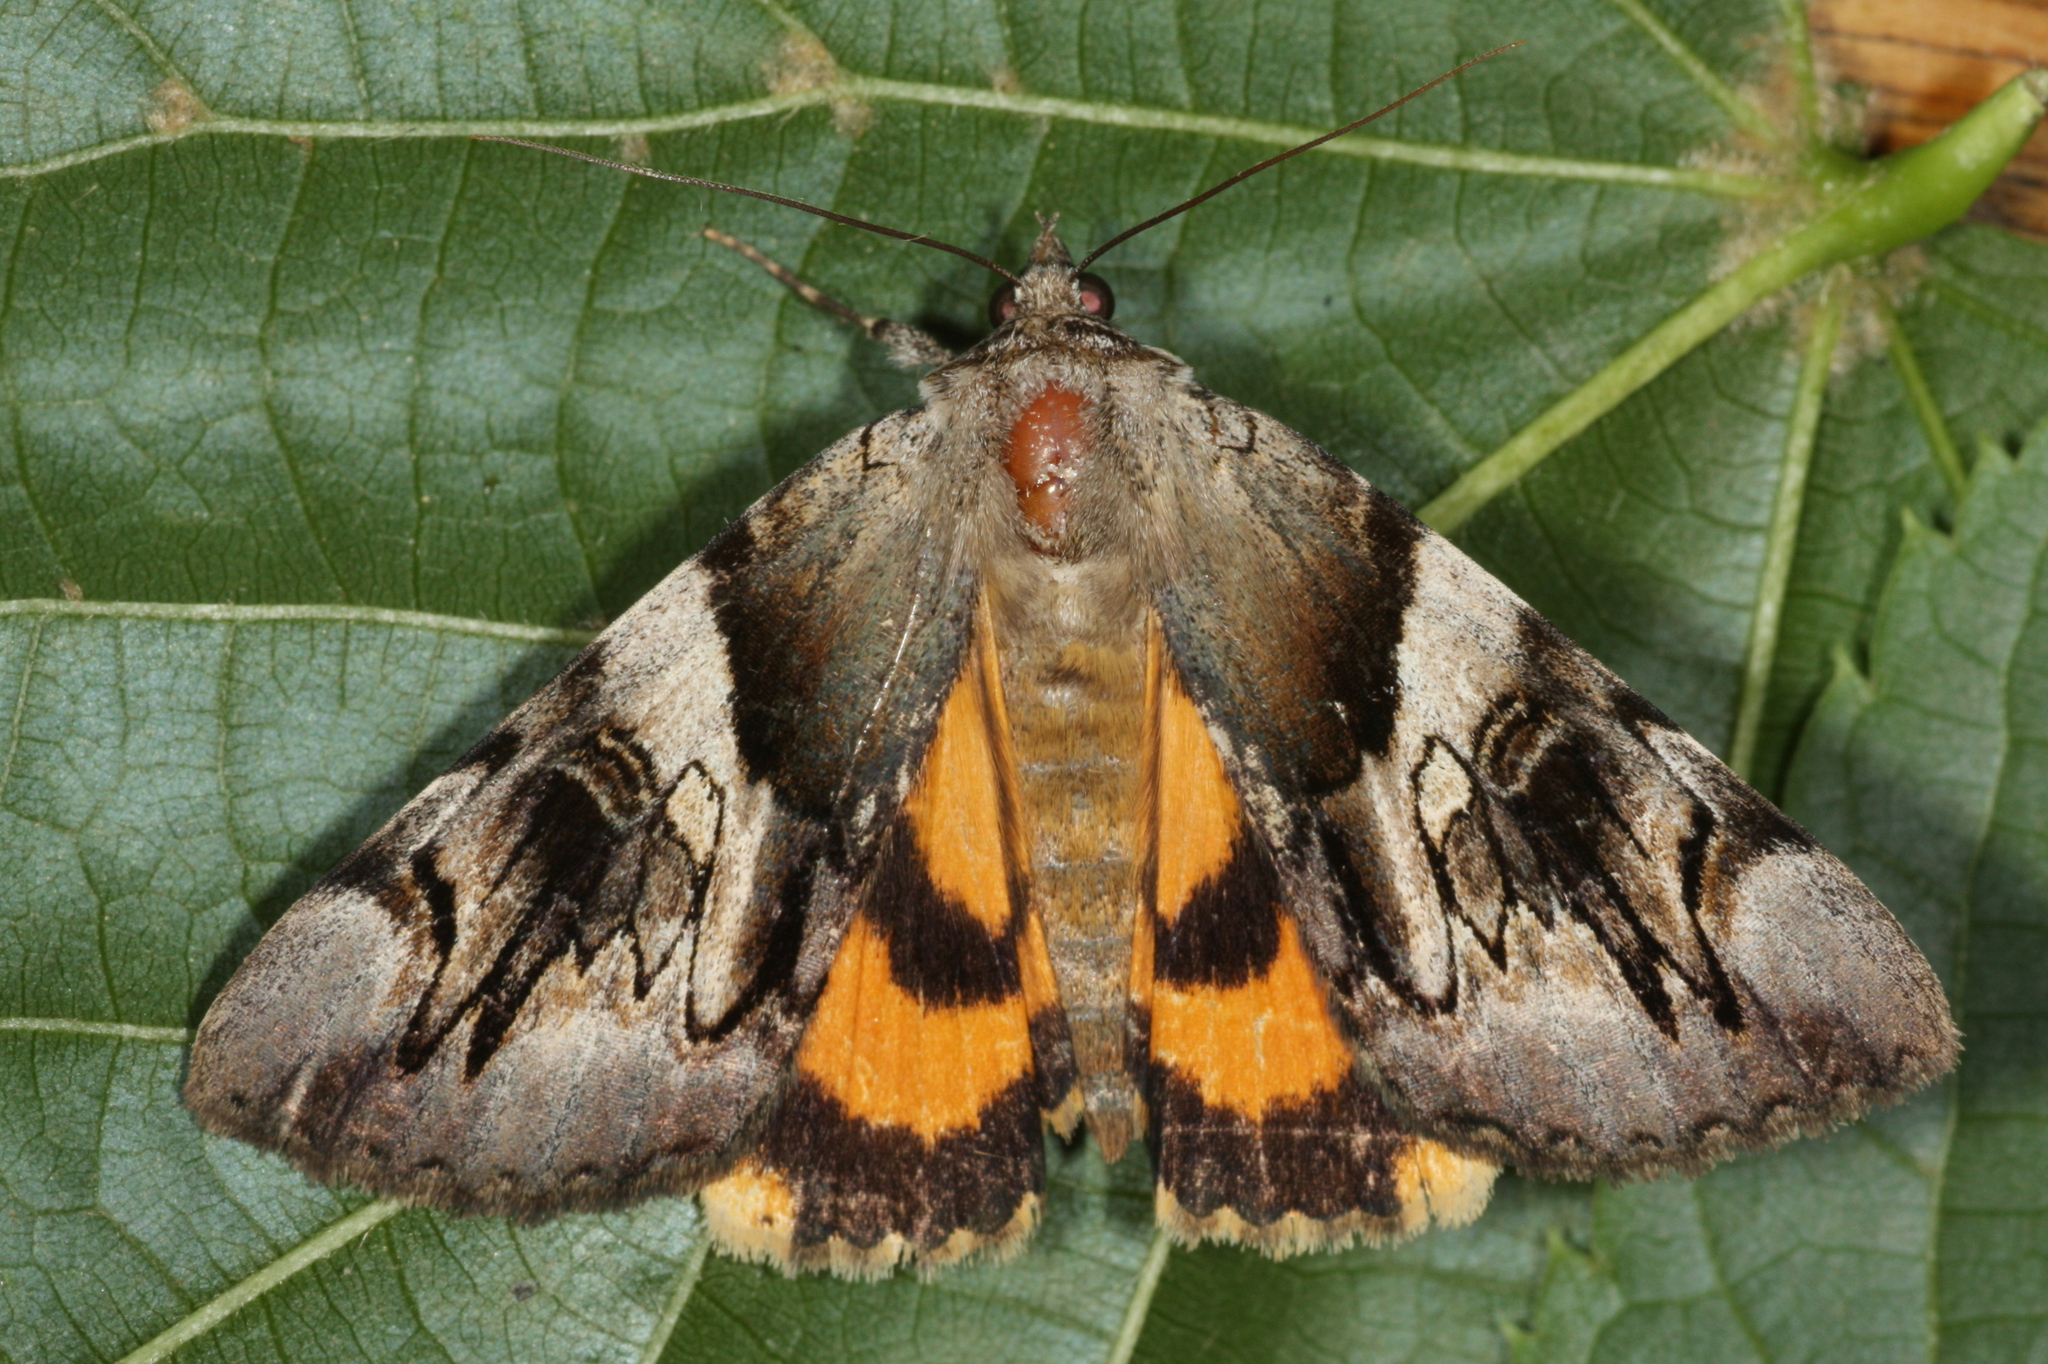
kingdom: Animalia
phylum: Arthropoda
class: Insecta
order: Lepidoptera
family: Erebidae
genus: Catocala
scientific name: Catocala fulminea
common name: Yellow bands underwing
